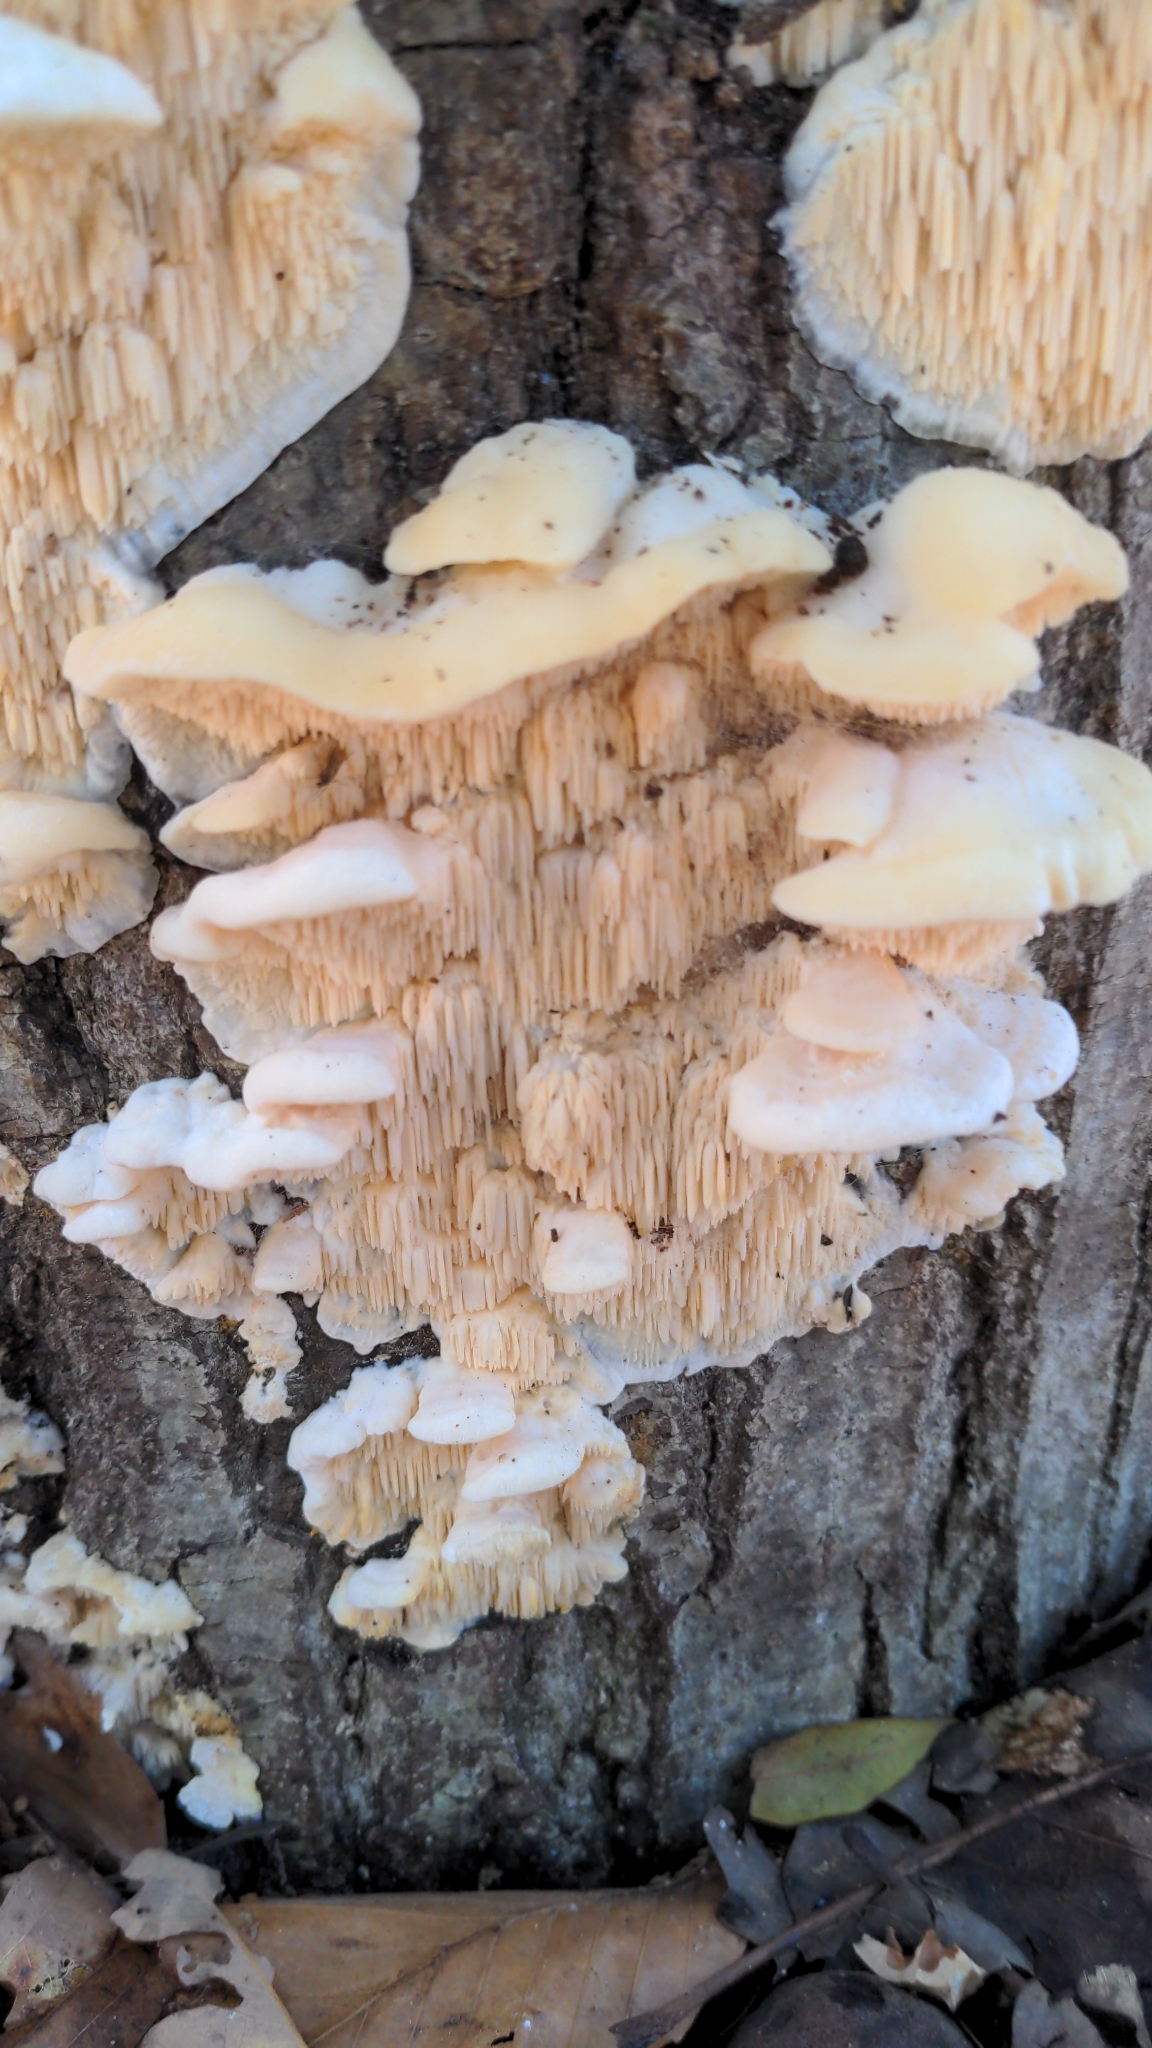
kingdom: Fungi
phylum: Basidiomycota
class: Agaricomycetes
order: Polyporales
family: Meruliaceae
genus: Irpiciporus
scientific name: Irpiciporus pachyodon
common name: Marshmallow polypore
